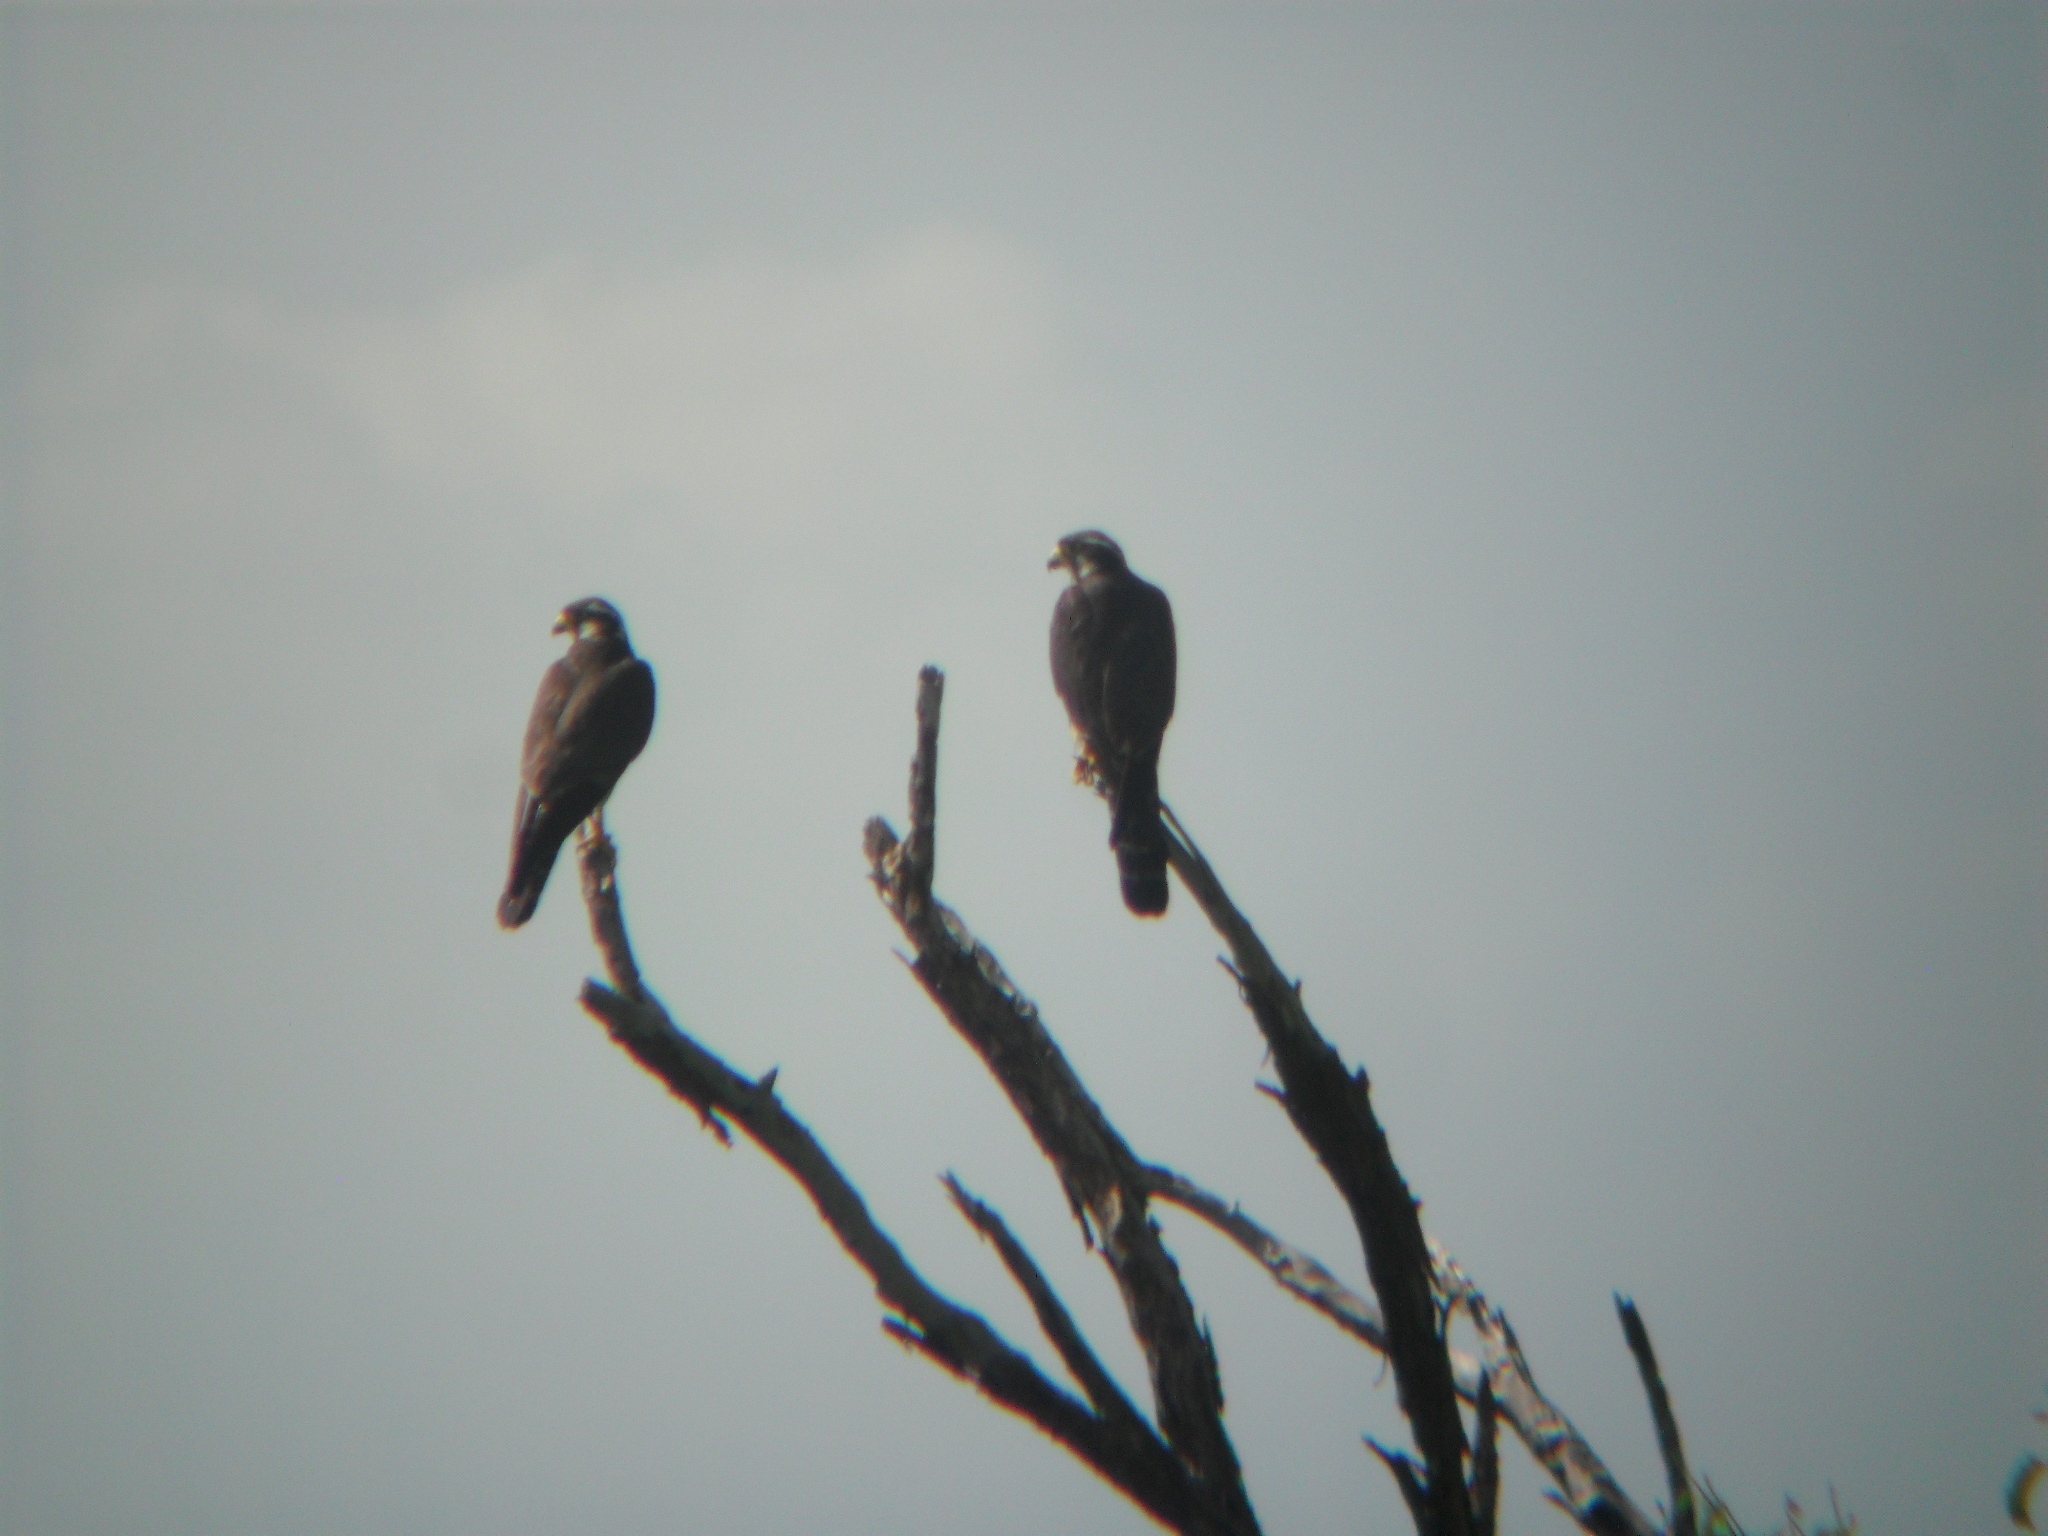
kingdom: Animalia
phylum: Chordata
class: Aves
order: Falconiformes
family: Falconidae
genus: Falco
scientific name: Falco femoralis
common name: Aplomado falcon
